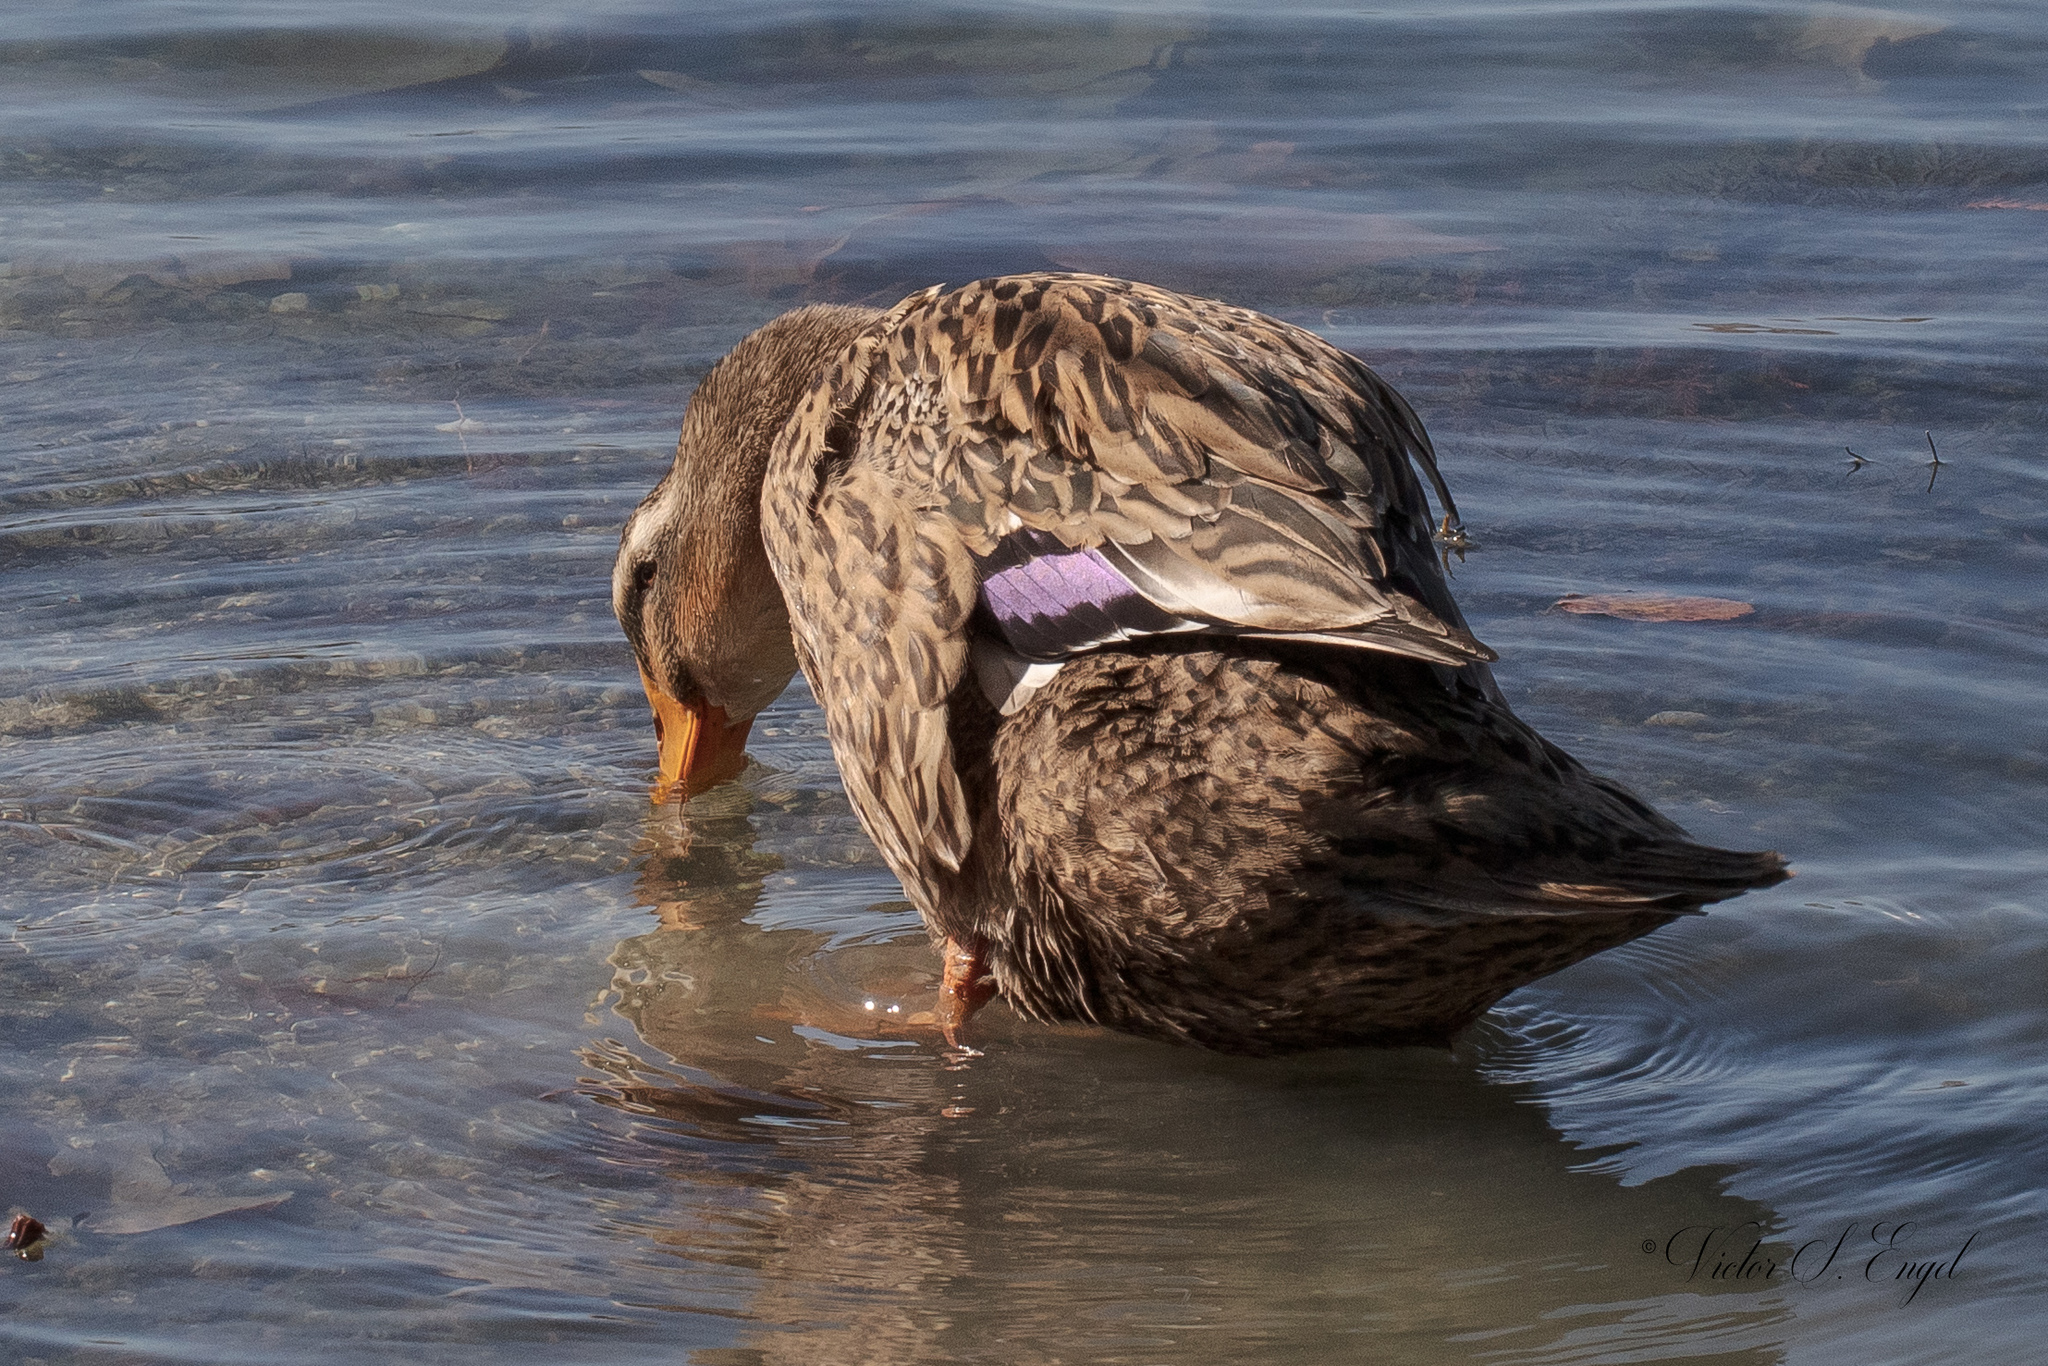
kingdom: Animalia
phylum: Chordata
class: Aves
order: Anseriformes
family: Anatidae
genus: Anas
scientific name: Anas platyrhynchos
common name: Mallard
